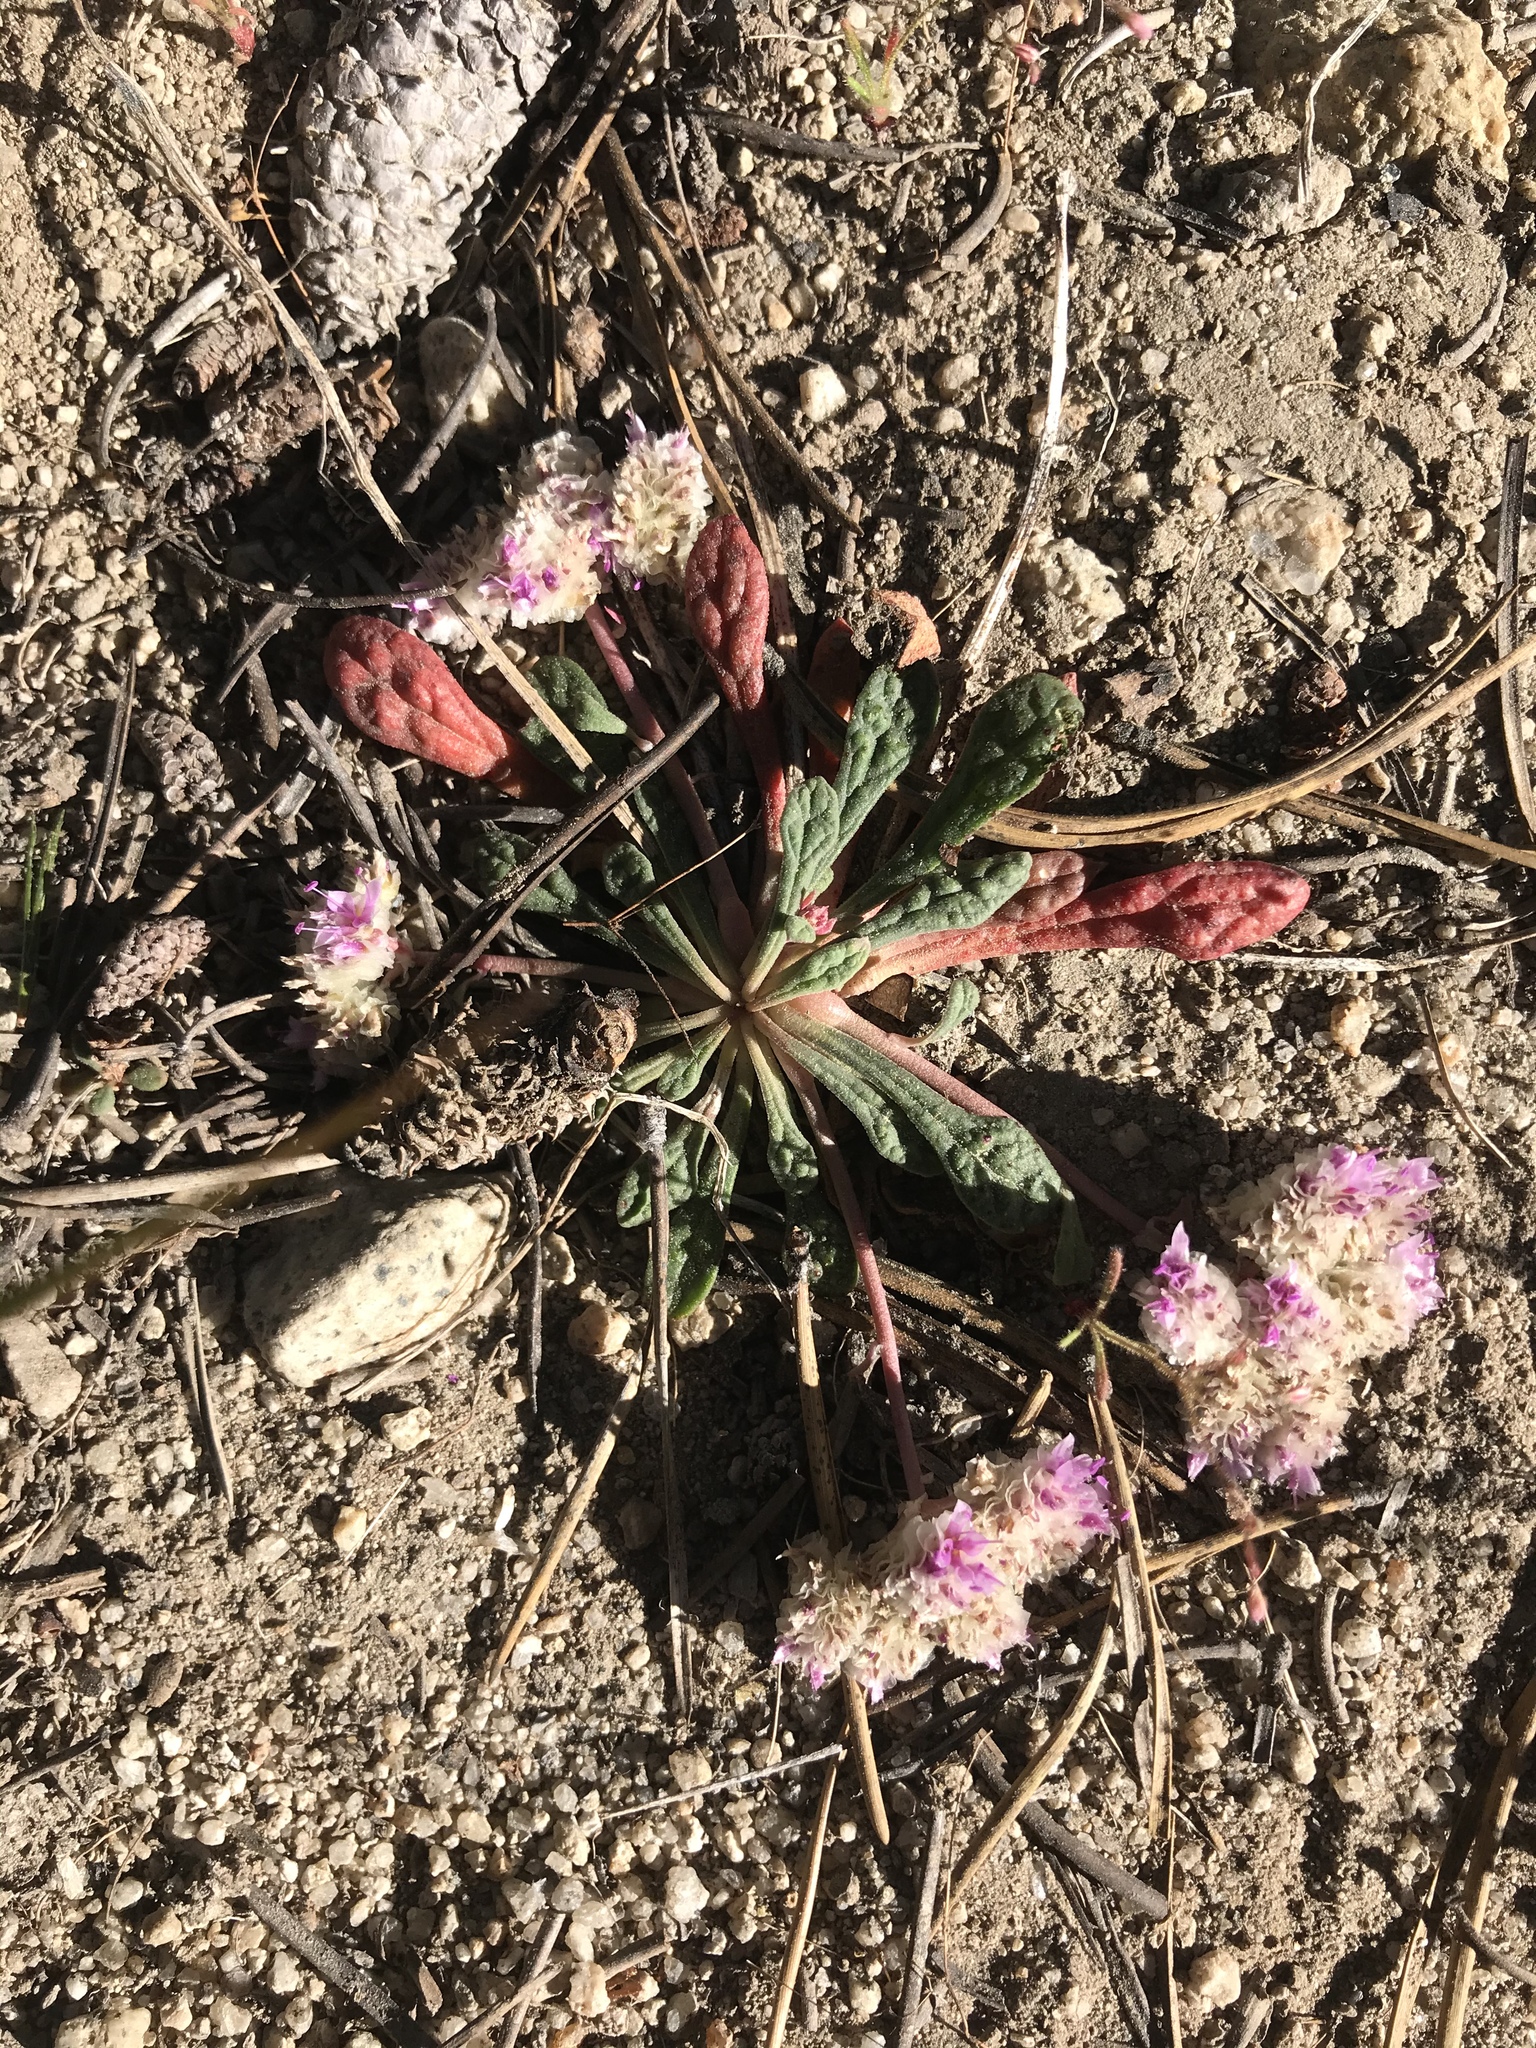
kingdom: Plantae
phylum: Tracheophyta
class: Magnoliopsida
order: Caryophyllales
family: Montiaceae
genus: Calyptridium
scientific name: Calyptridium monospermum
